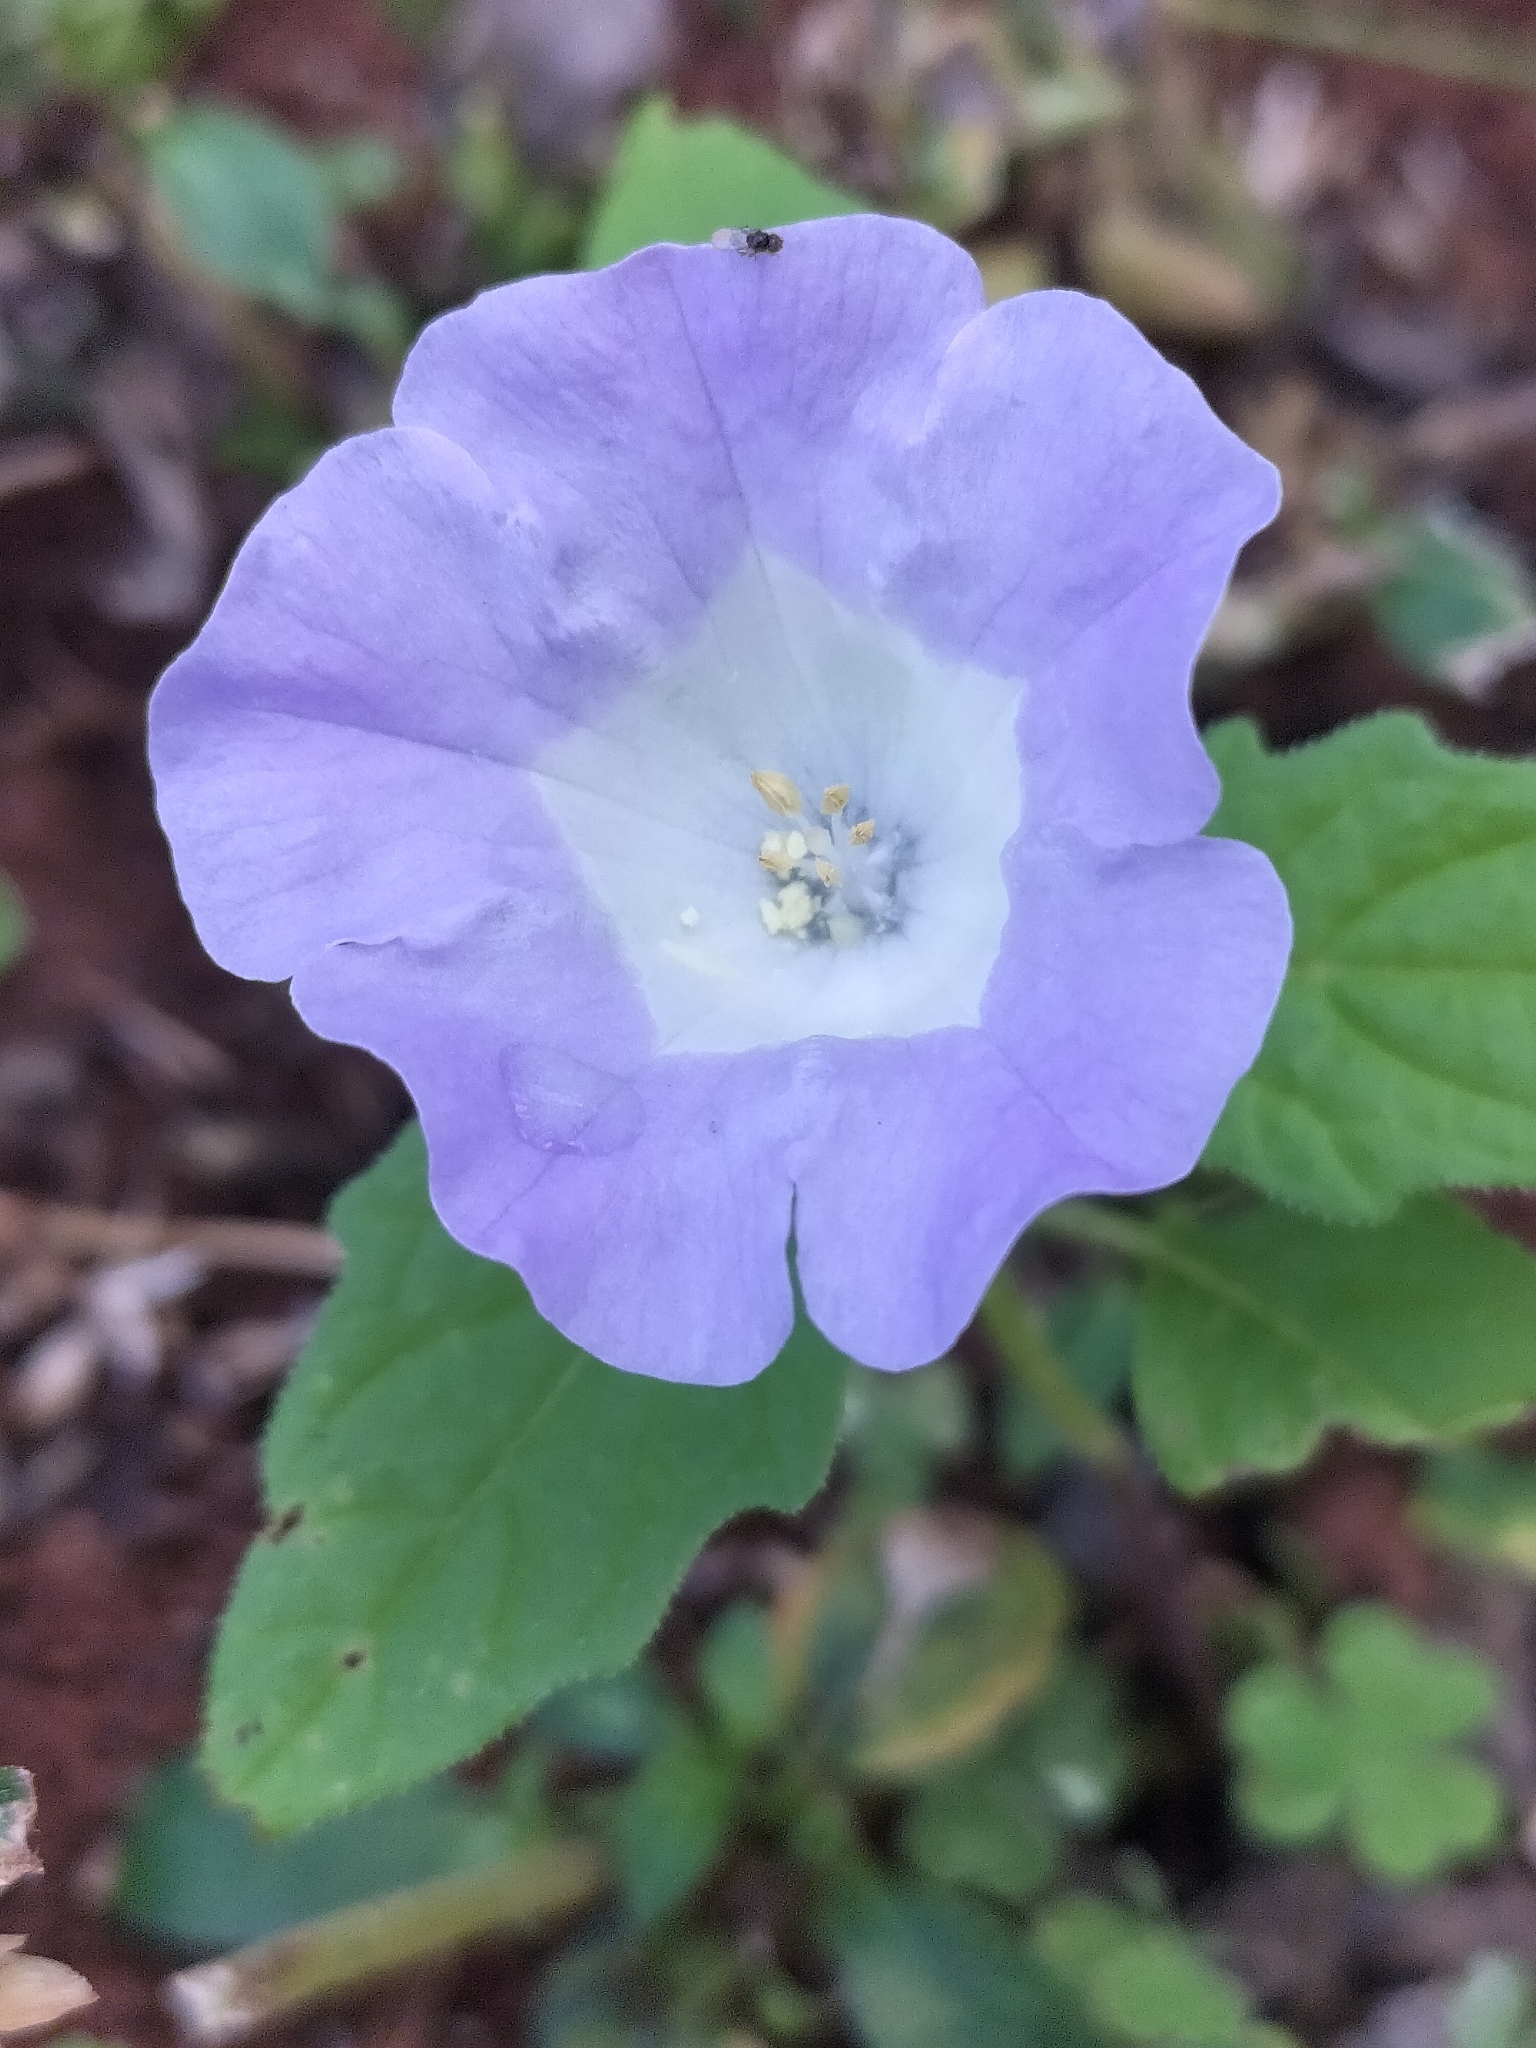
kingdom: Plantae
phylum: Tracheophyta
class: Magnoliopsida
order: Solanales
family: Solanaceae
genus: Nicandra
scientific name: Nicandra physalodes
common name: Apple-of-peru
